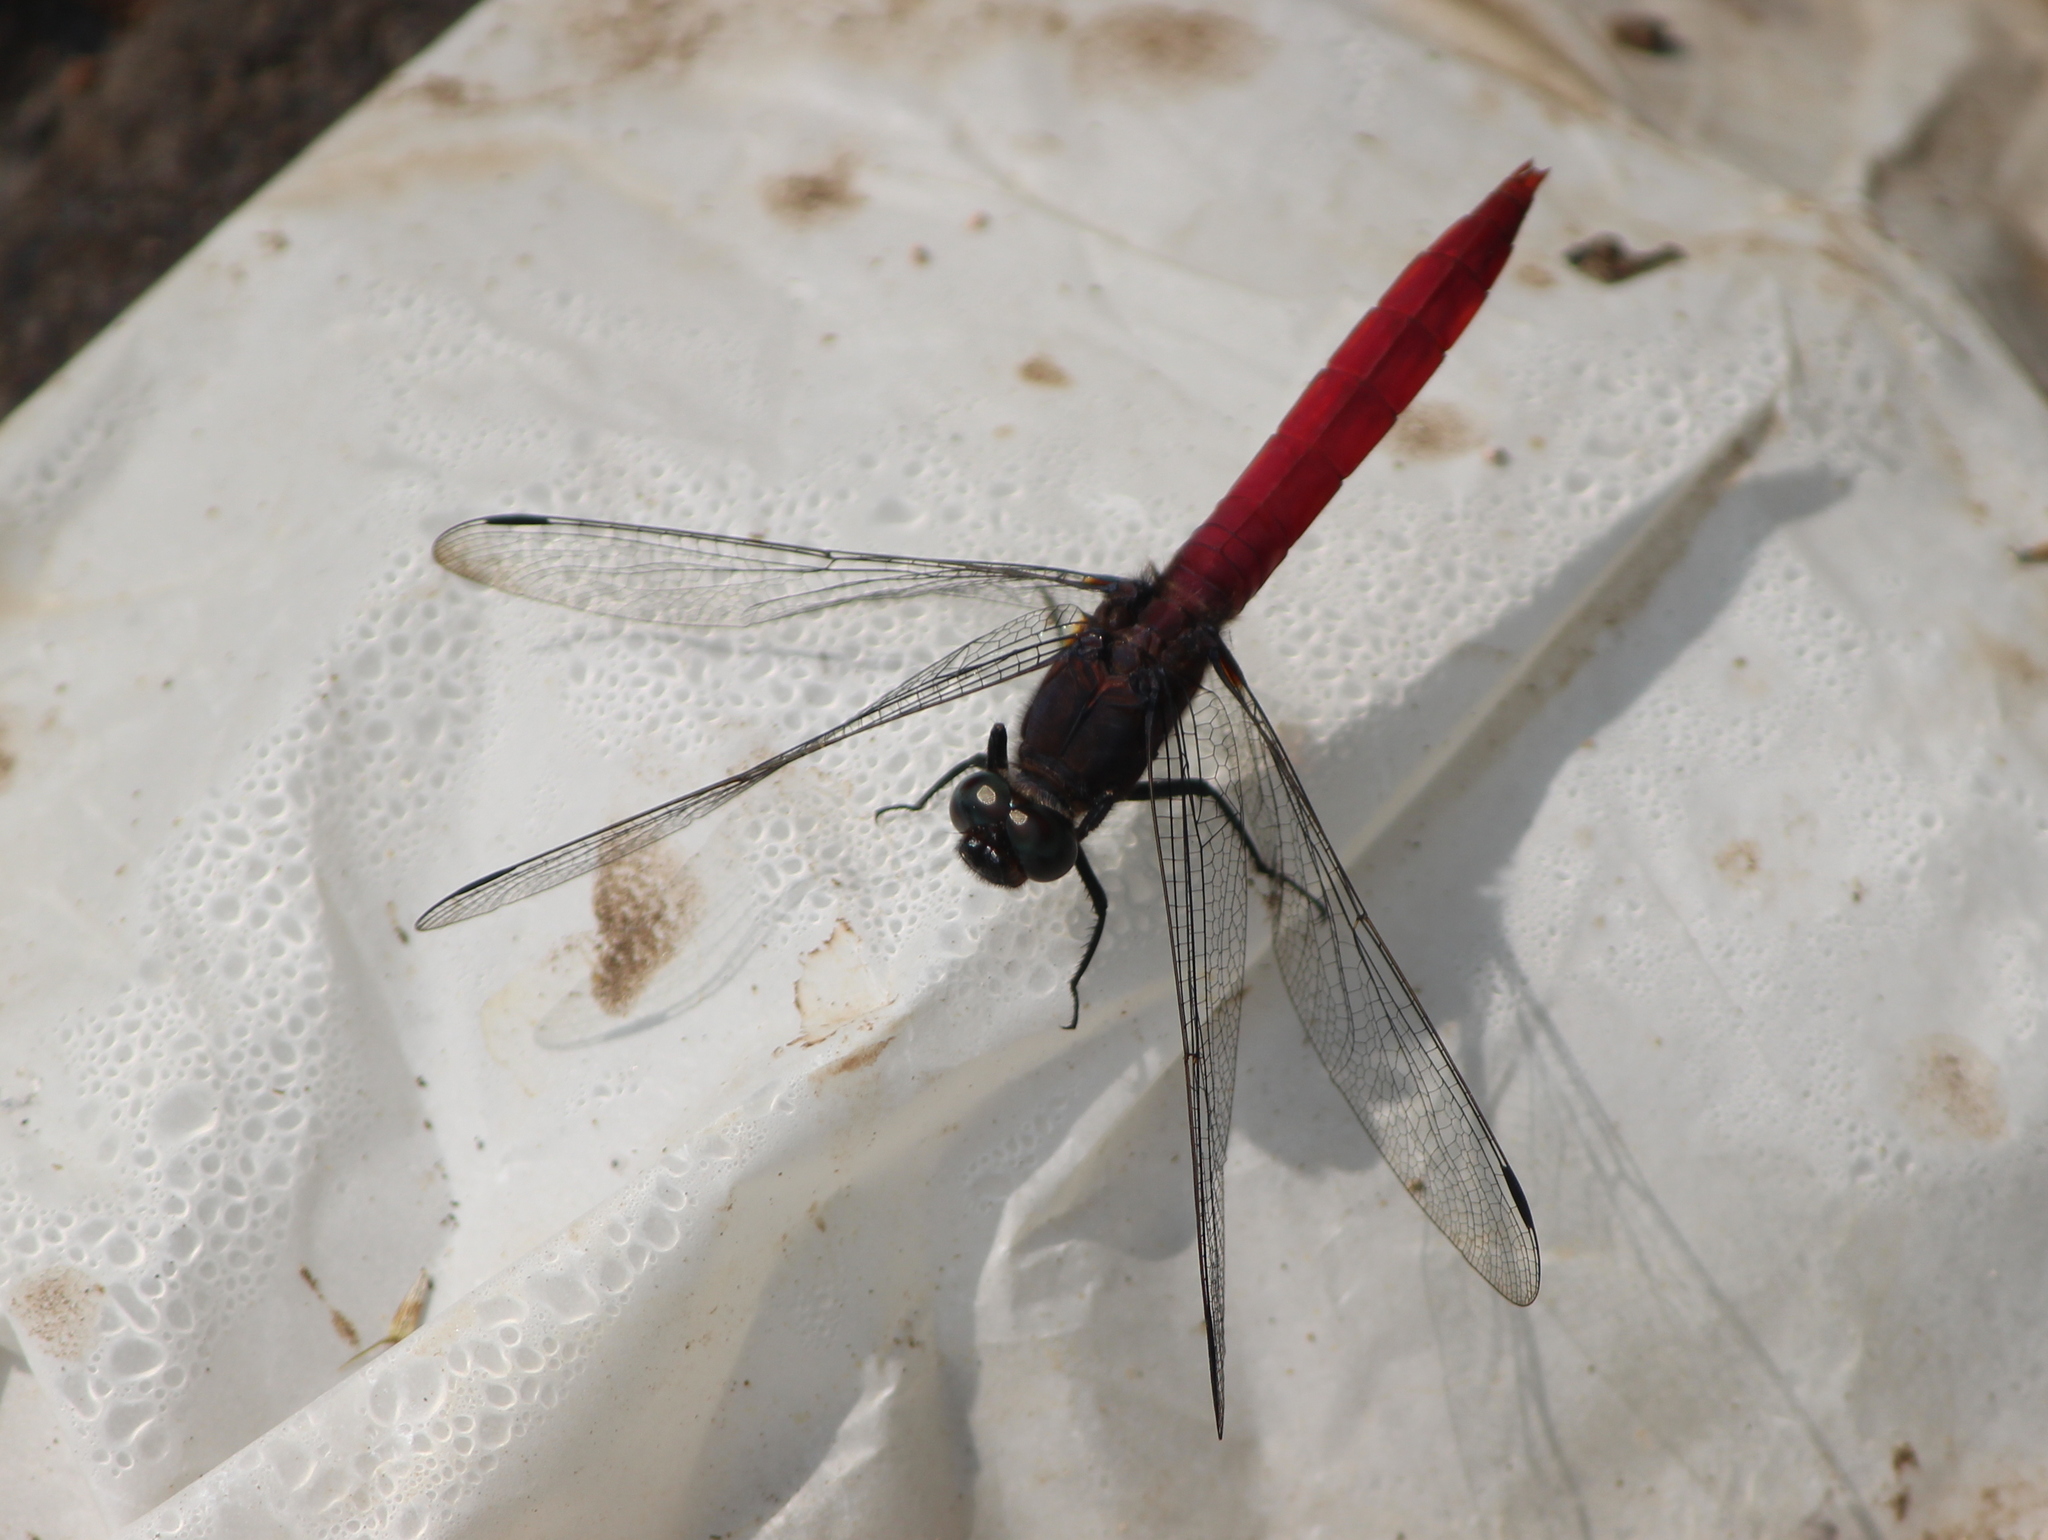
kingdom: Animalia
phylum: Arthropoda
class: Insecta
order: Odonata
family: Libellulidae
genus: Orthetrum
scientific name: Orthetrum pruinosum
